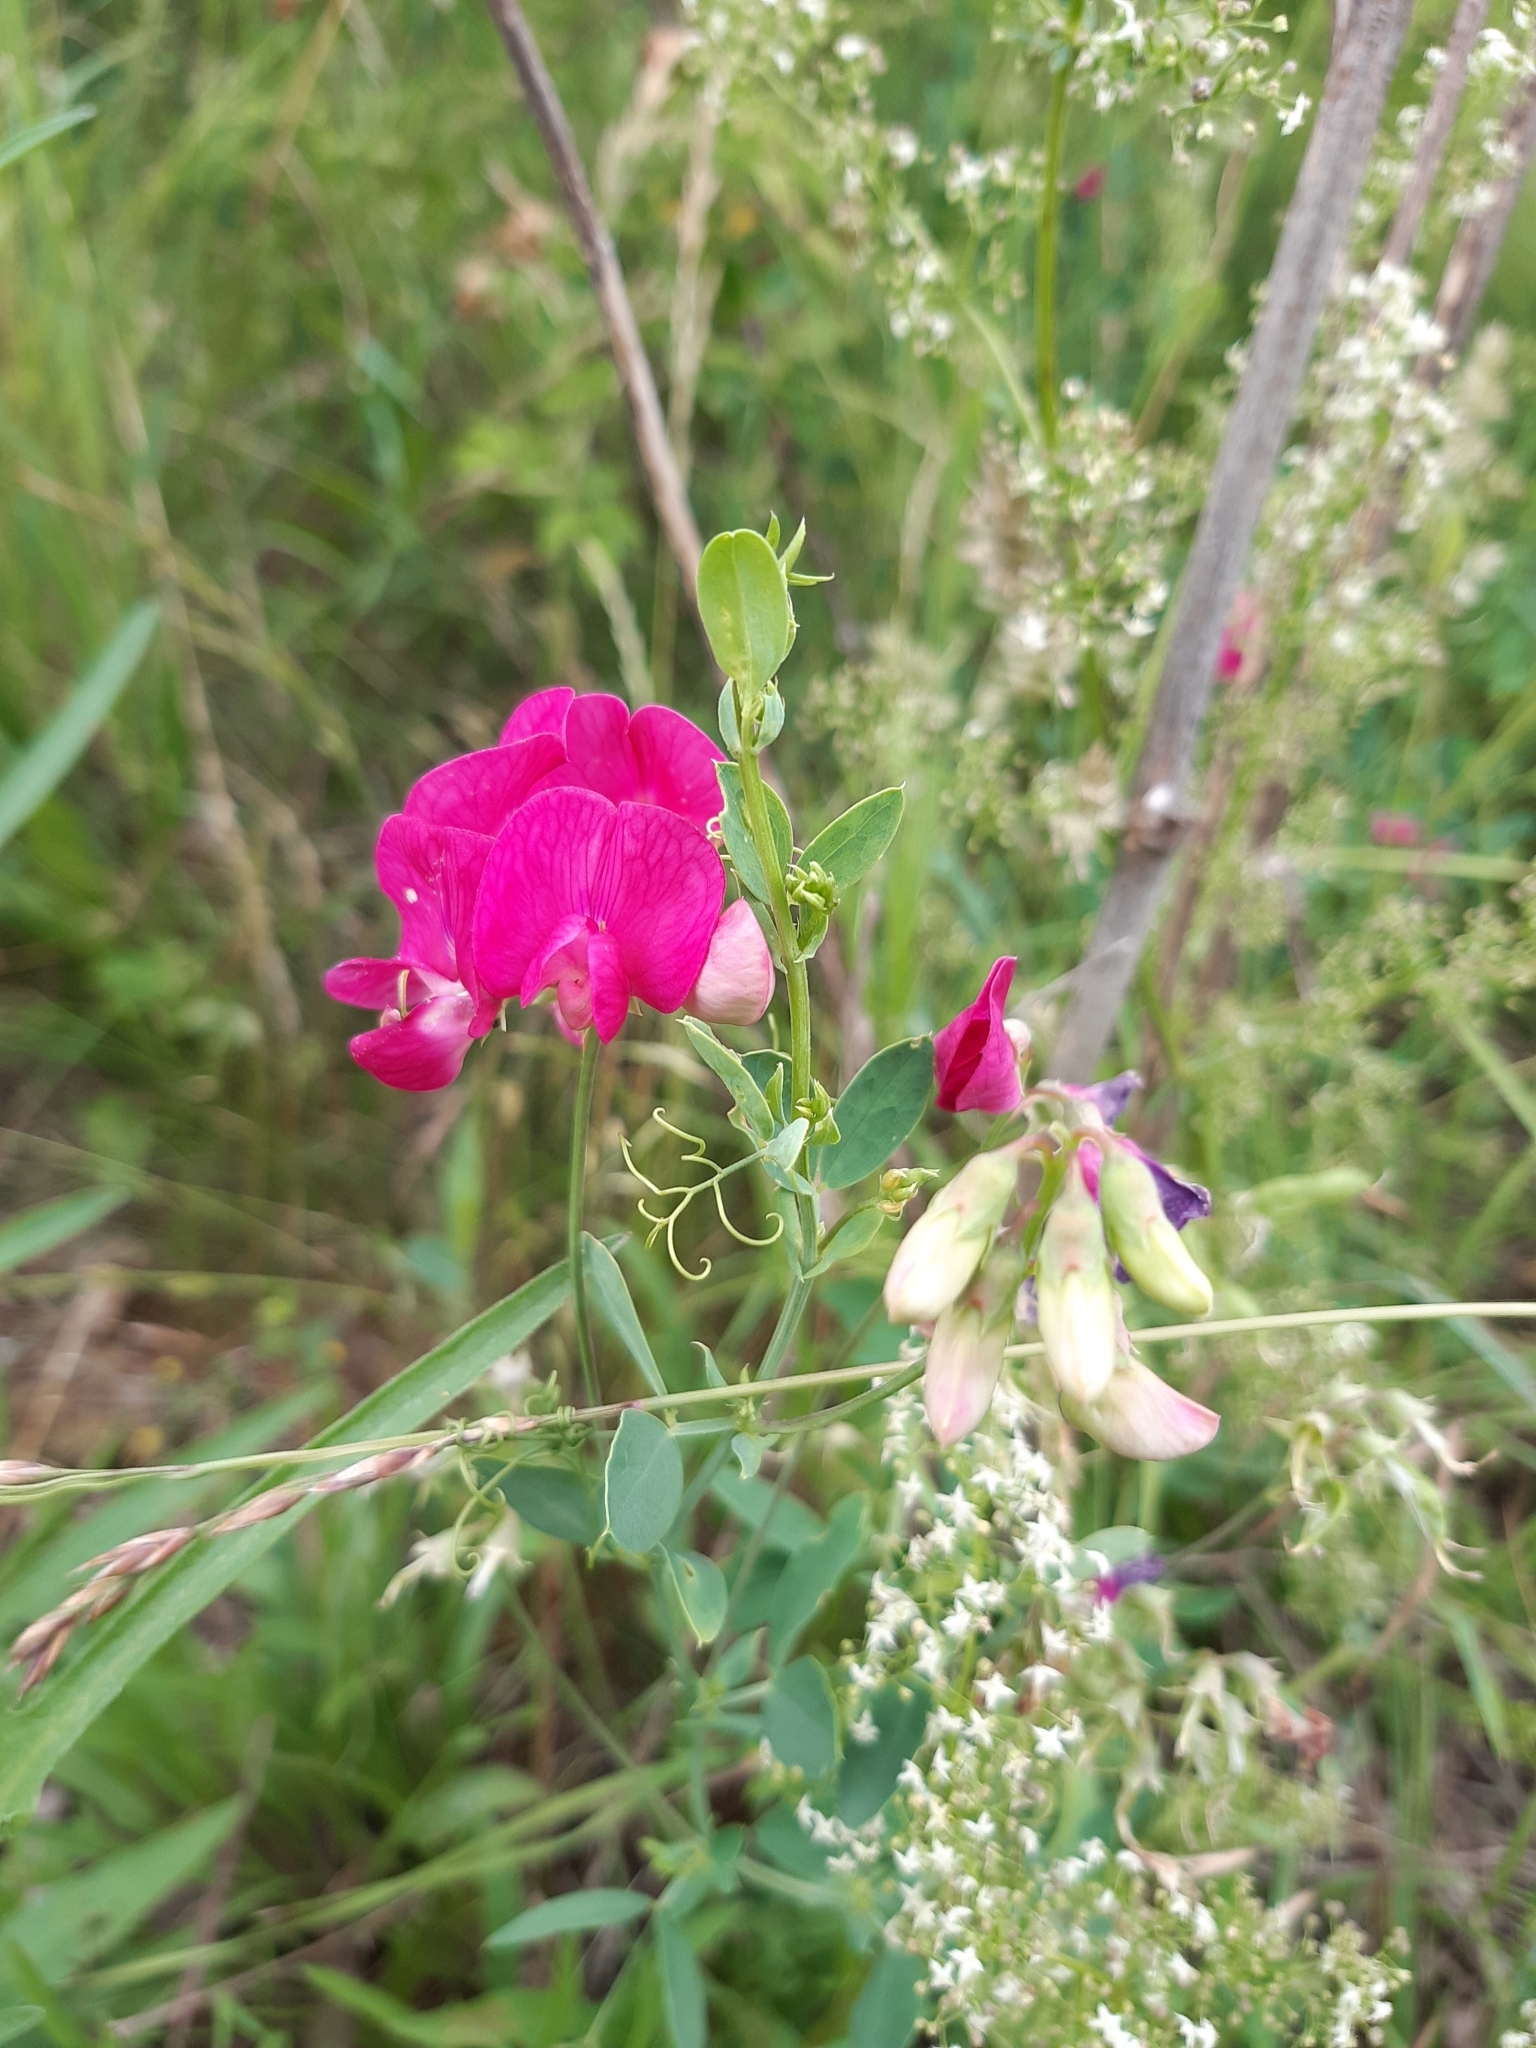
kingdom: Plantae
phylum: Tracheophyta
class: Magnoliopsida
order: Fabales
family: Fabaceae
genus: Lathyrus
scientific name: Lathyrus tuberosus
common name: Tuberous pea
